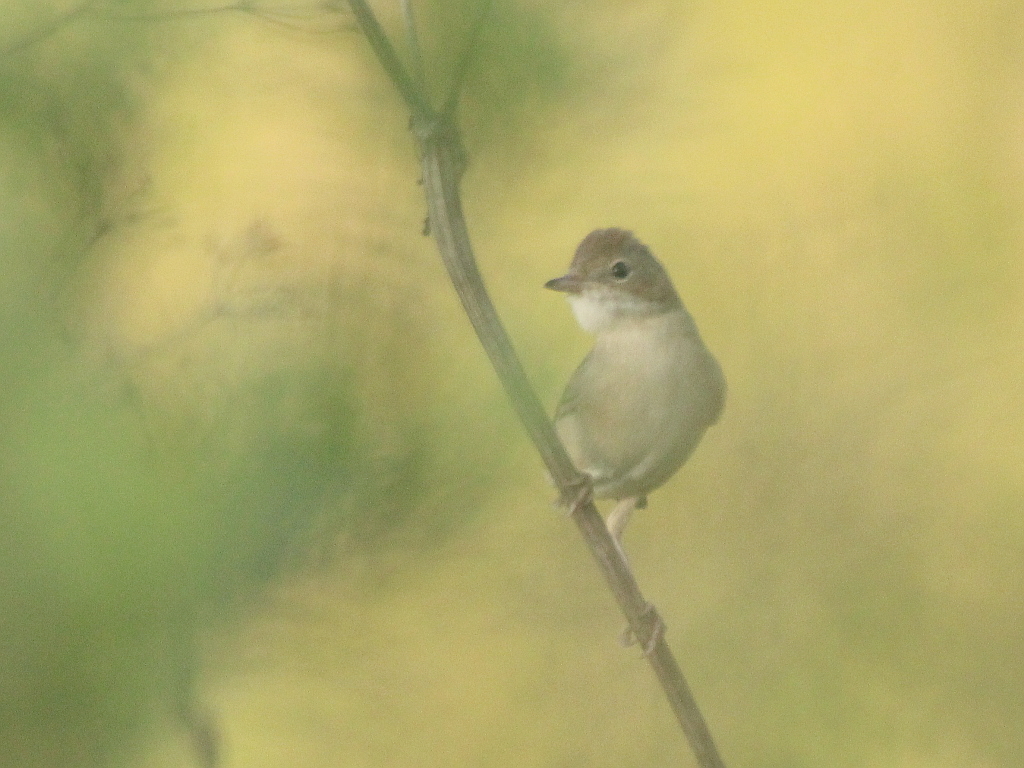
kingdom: Animalia
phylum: Chordata
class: Aves
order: Passeriformes
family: Sylviidae
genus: Sylvia
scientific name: Sylvia communis
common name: Common whitethroat
